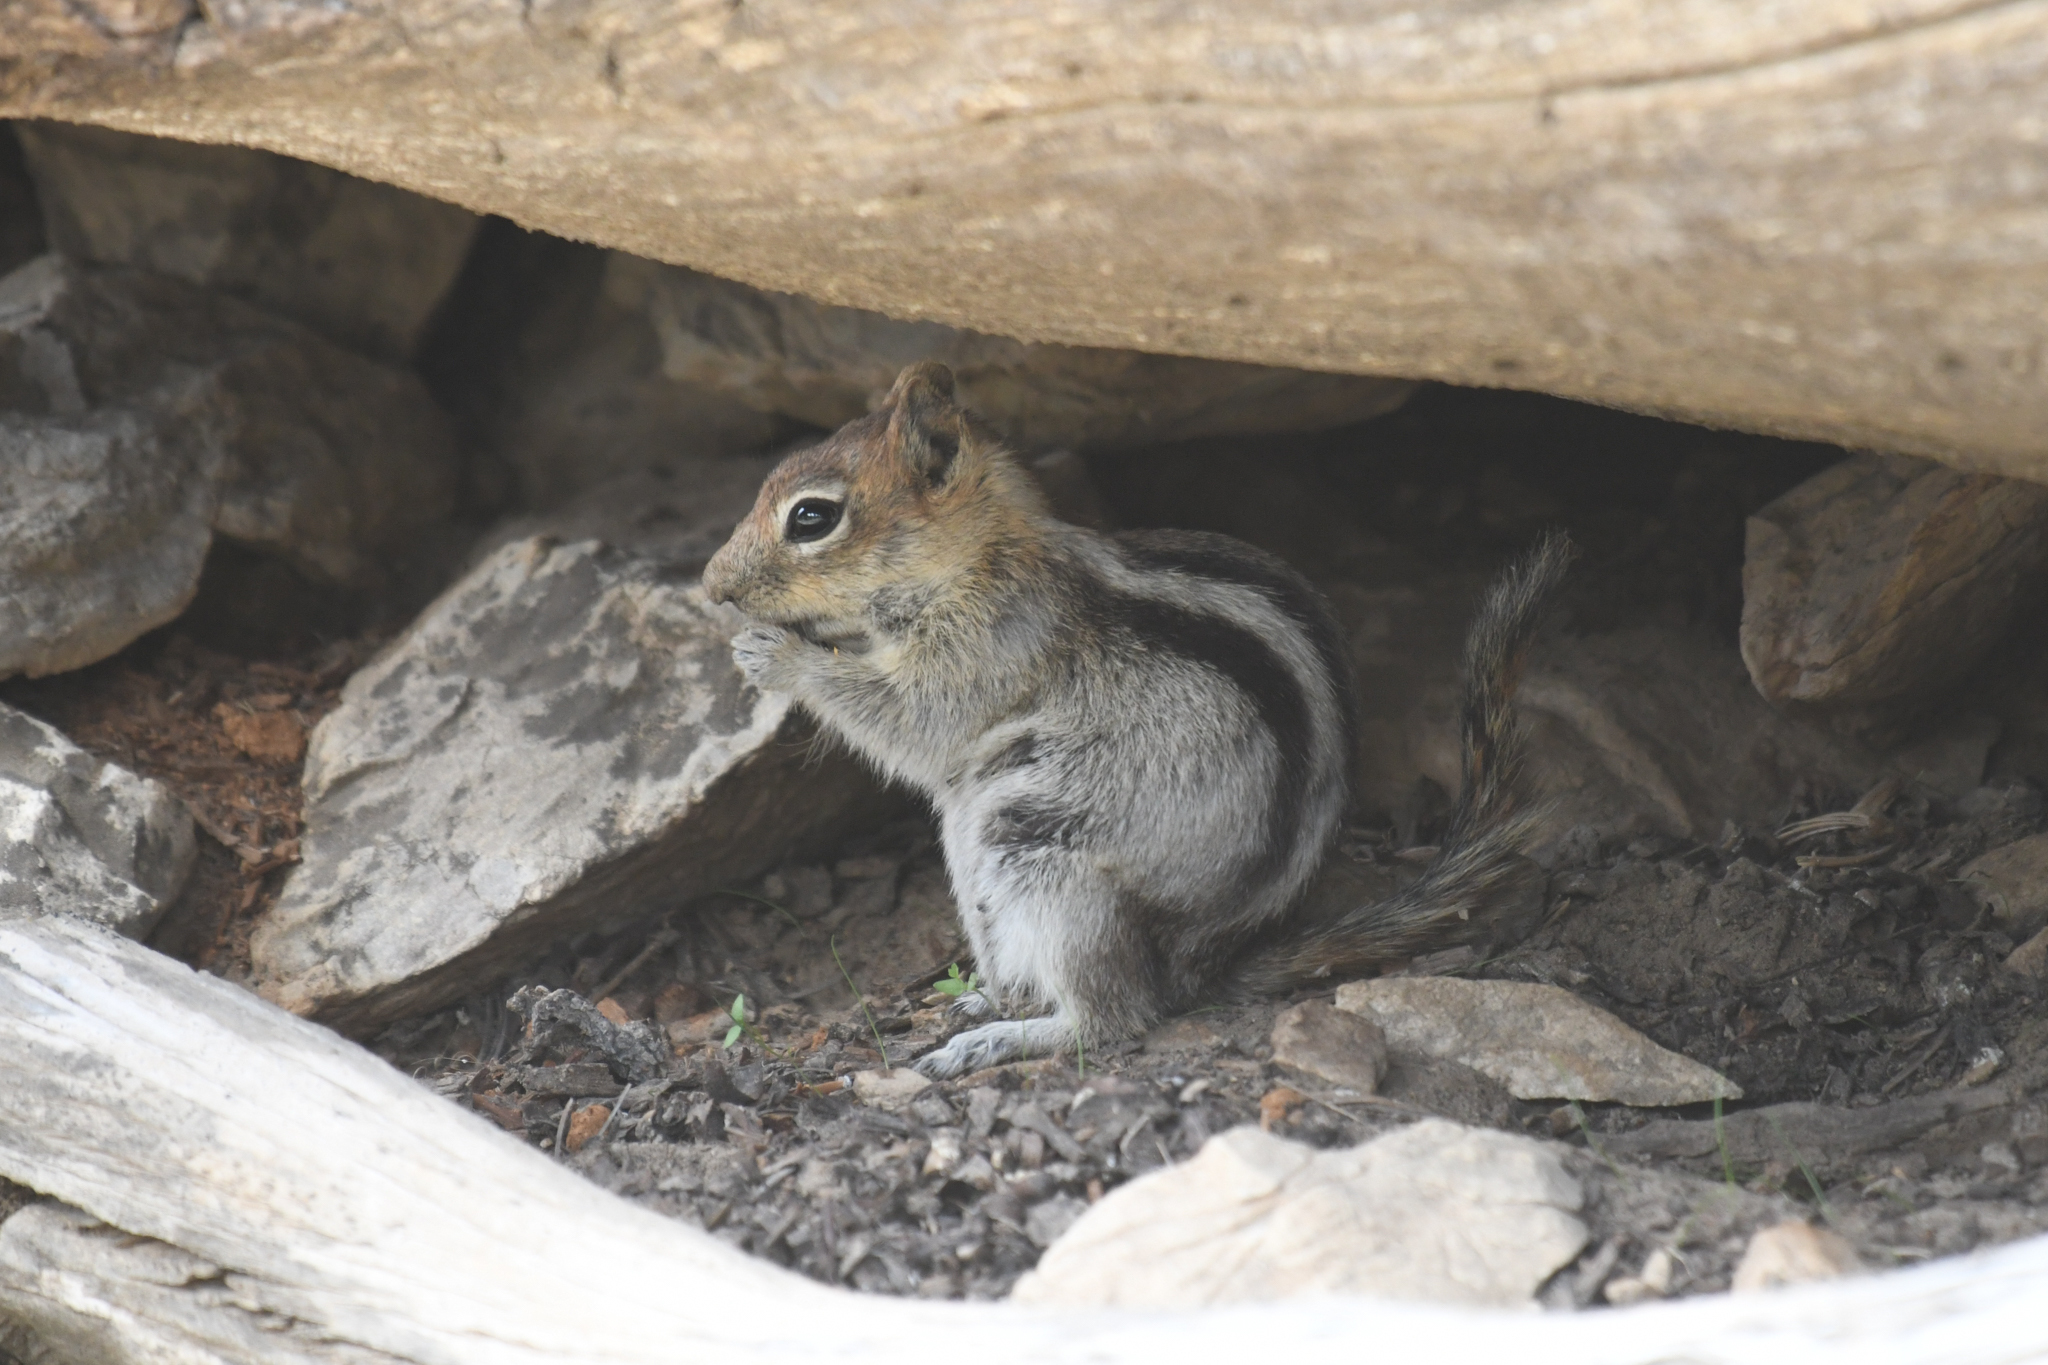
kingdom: Animalia
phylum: Chordata
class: Mammalia
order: Rodentia
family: Sciuridae
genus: Callospermophilus
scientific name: Callospermophilus lateralis
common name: Golden-mantled ground squirrel
